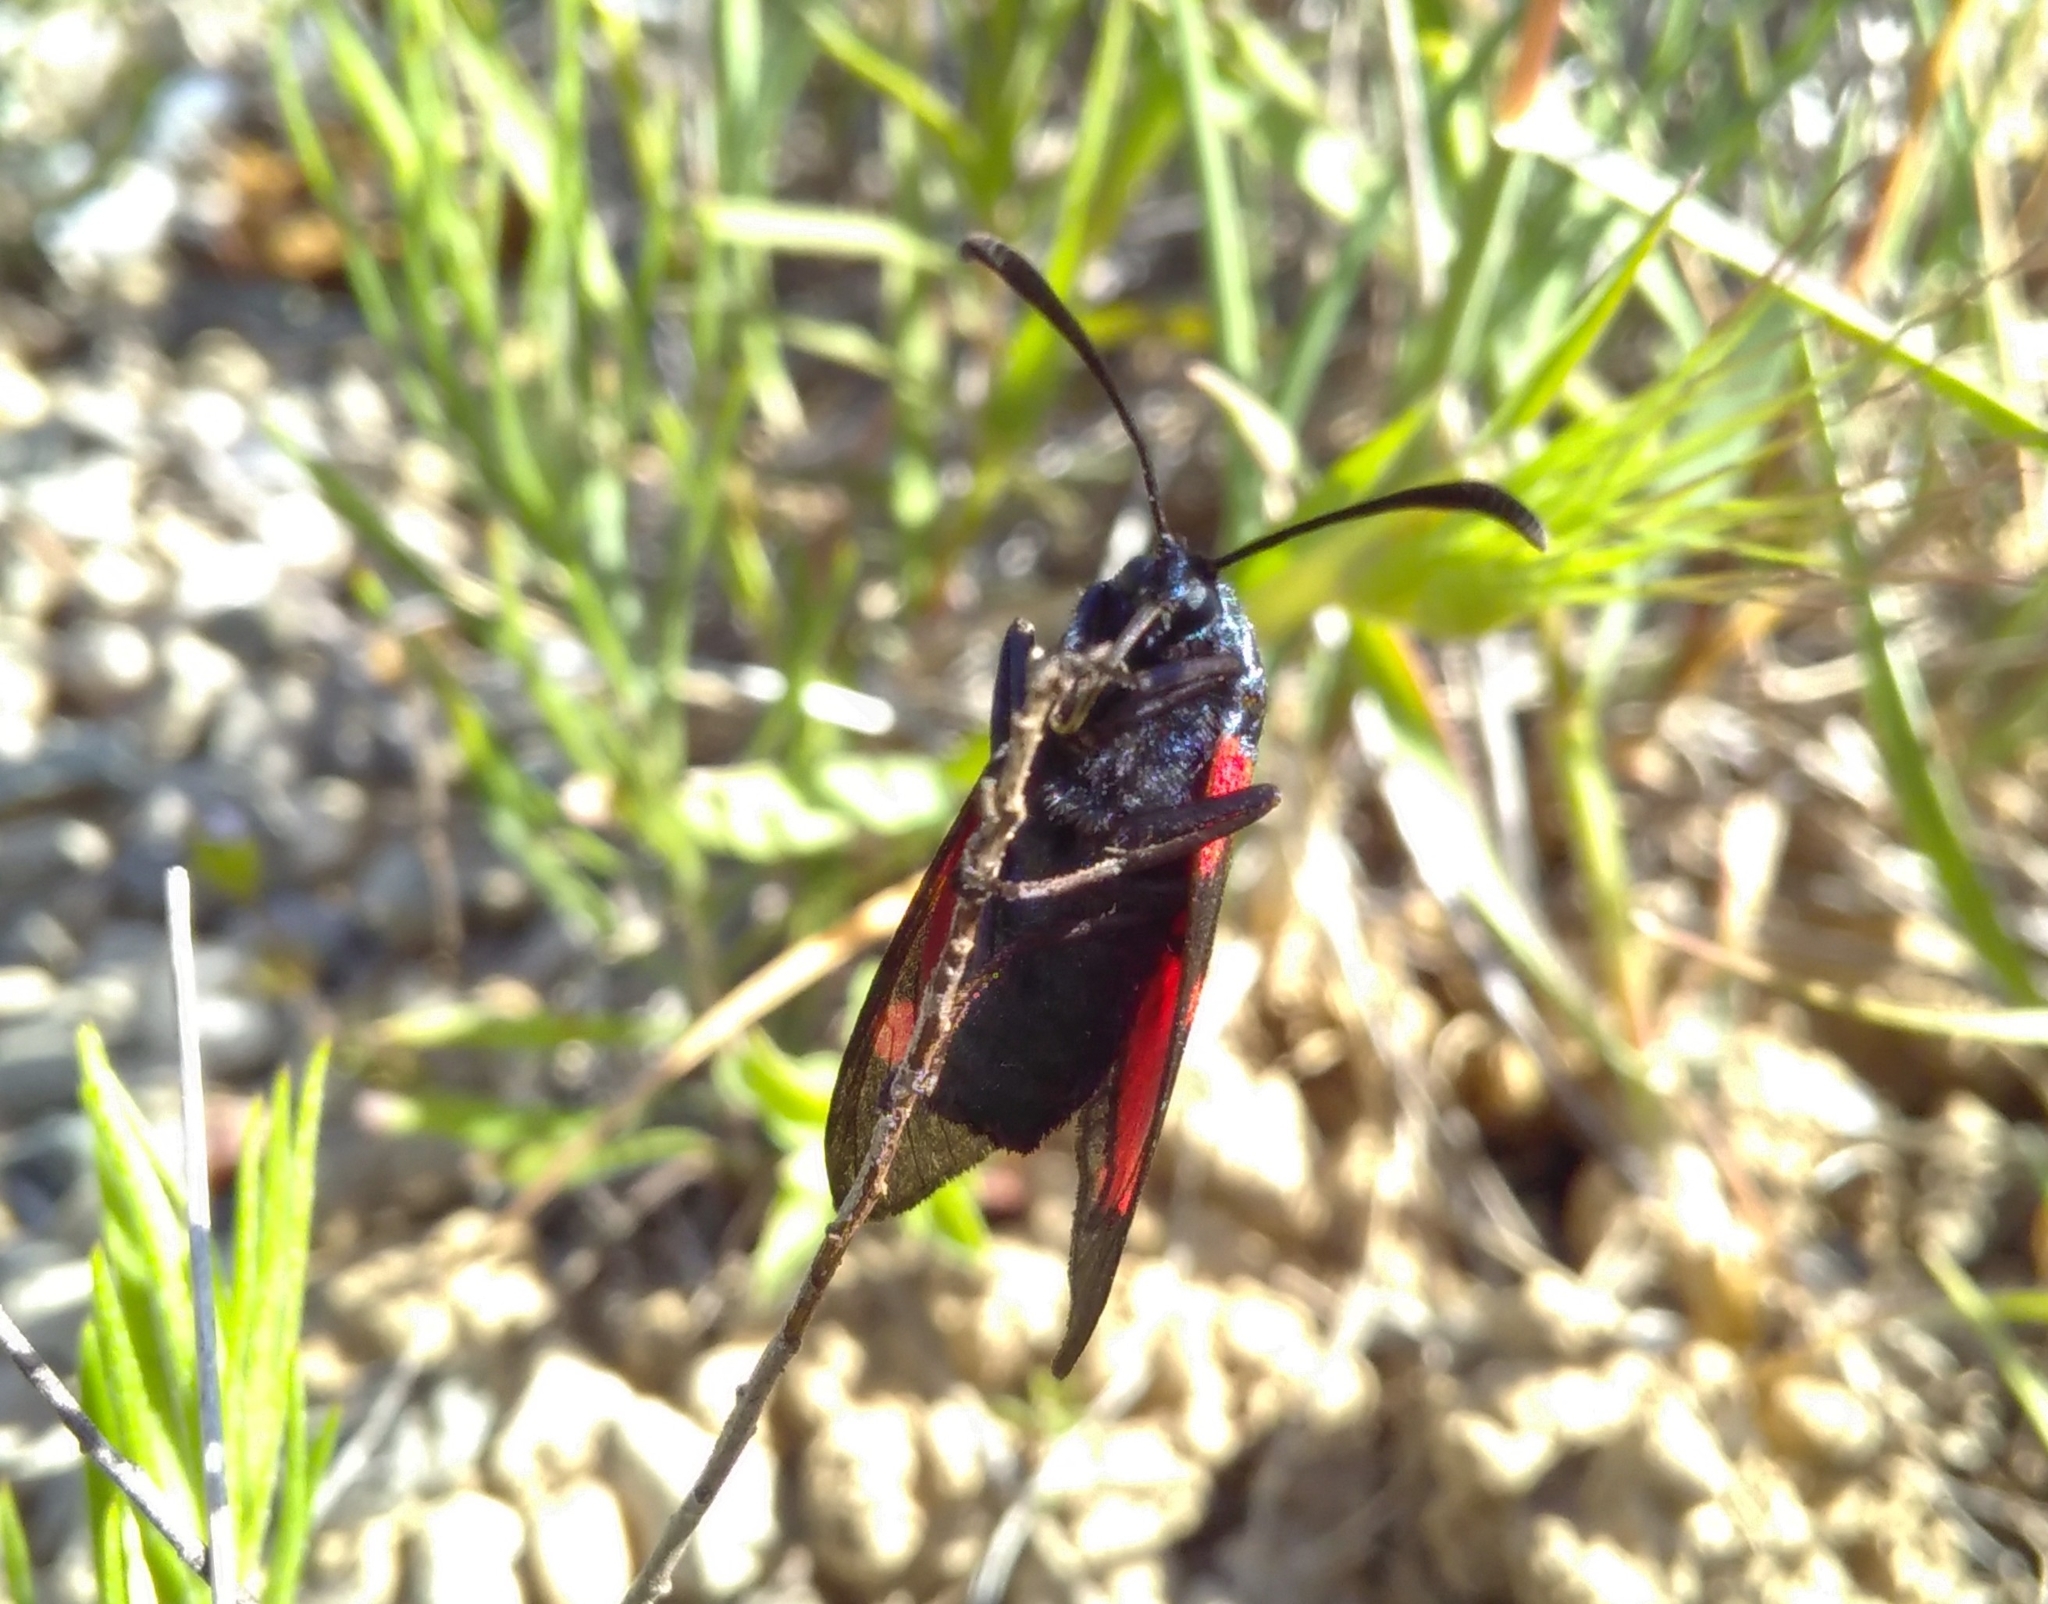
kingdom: Animalia
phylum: Arthropoda
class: Insecta
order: Lepidoptera
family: Zygaenidae
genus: Zygaena
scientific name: Zygaena filipendulae
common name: Six-spot burnet
